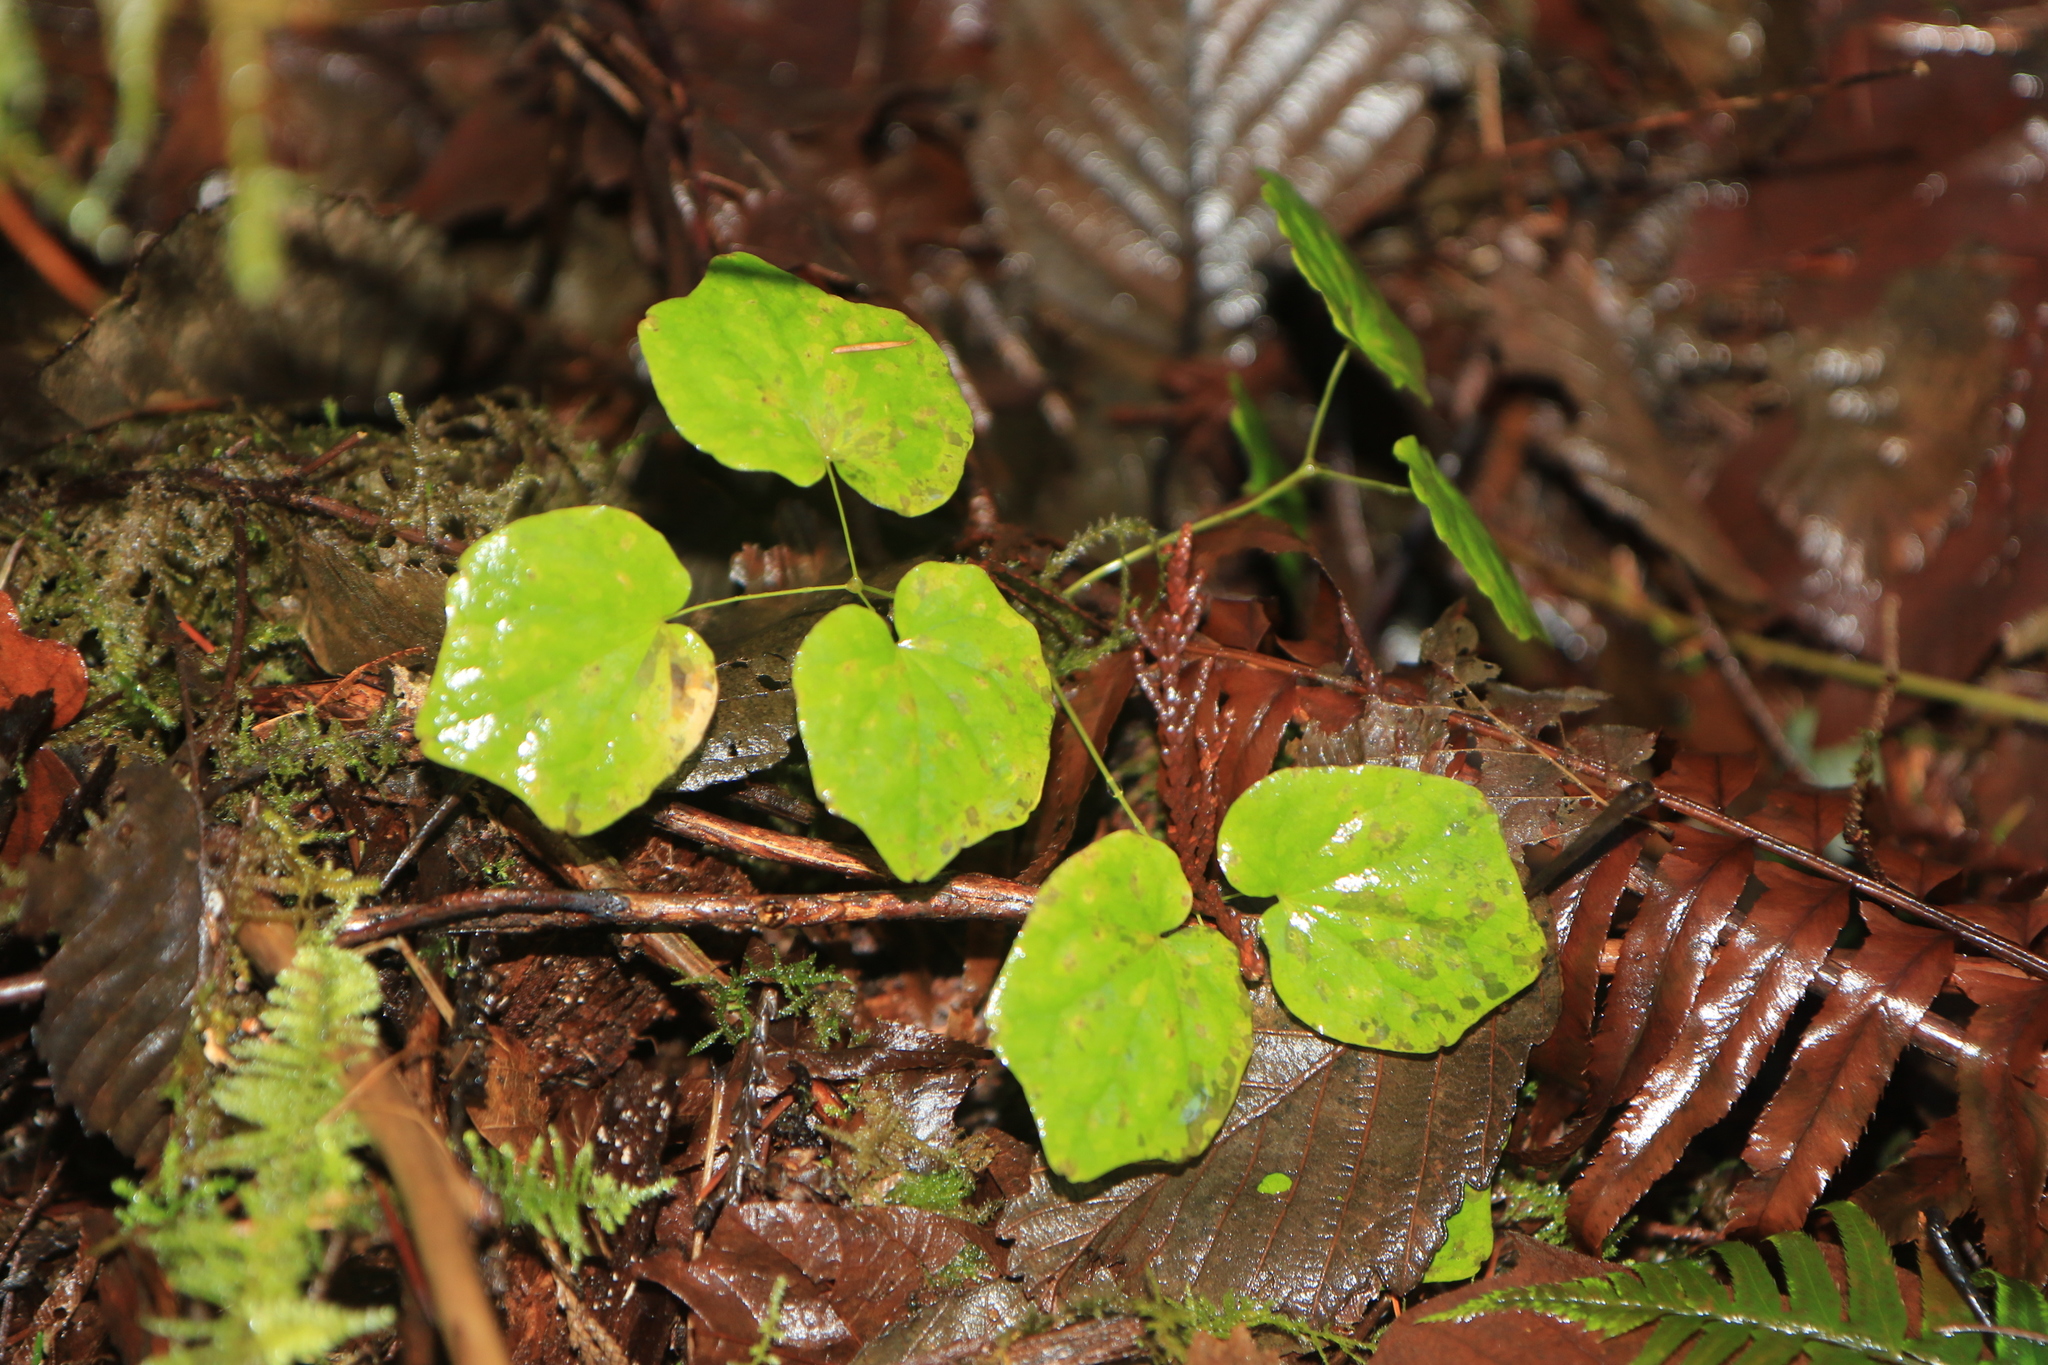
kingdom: Plantae
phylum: Tracheophyta
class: Magnoliopsida
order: Ranunculales
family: Berberidaceae
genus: Vancouveria
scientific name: Vancouveria hexandra
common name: Northern inside-out-flower
